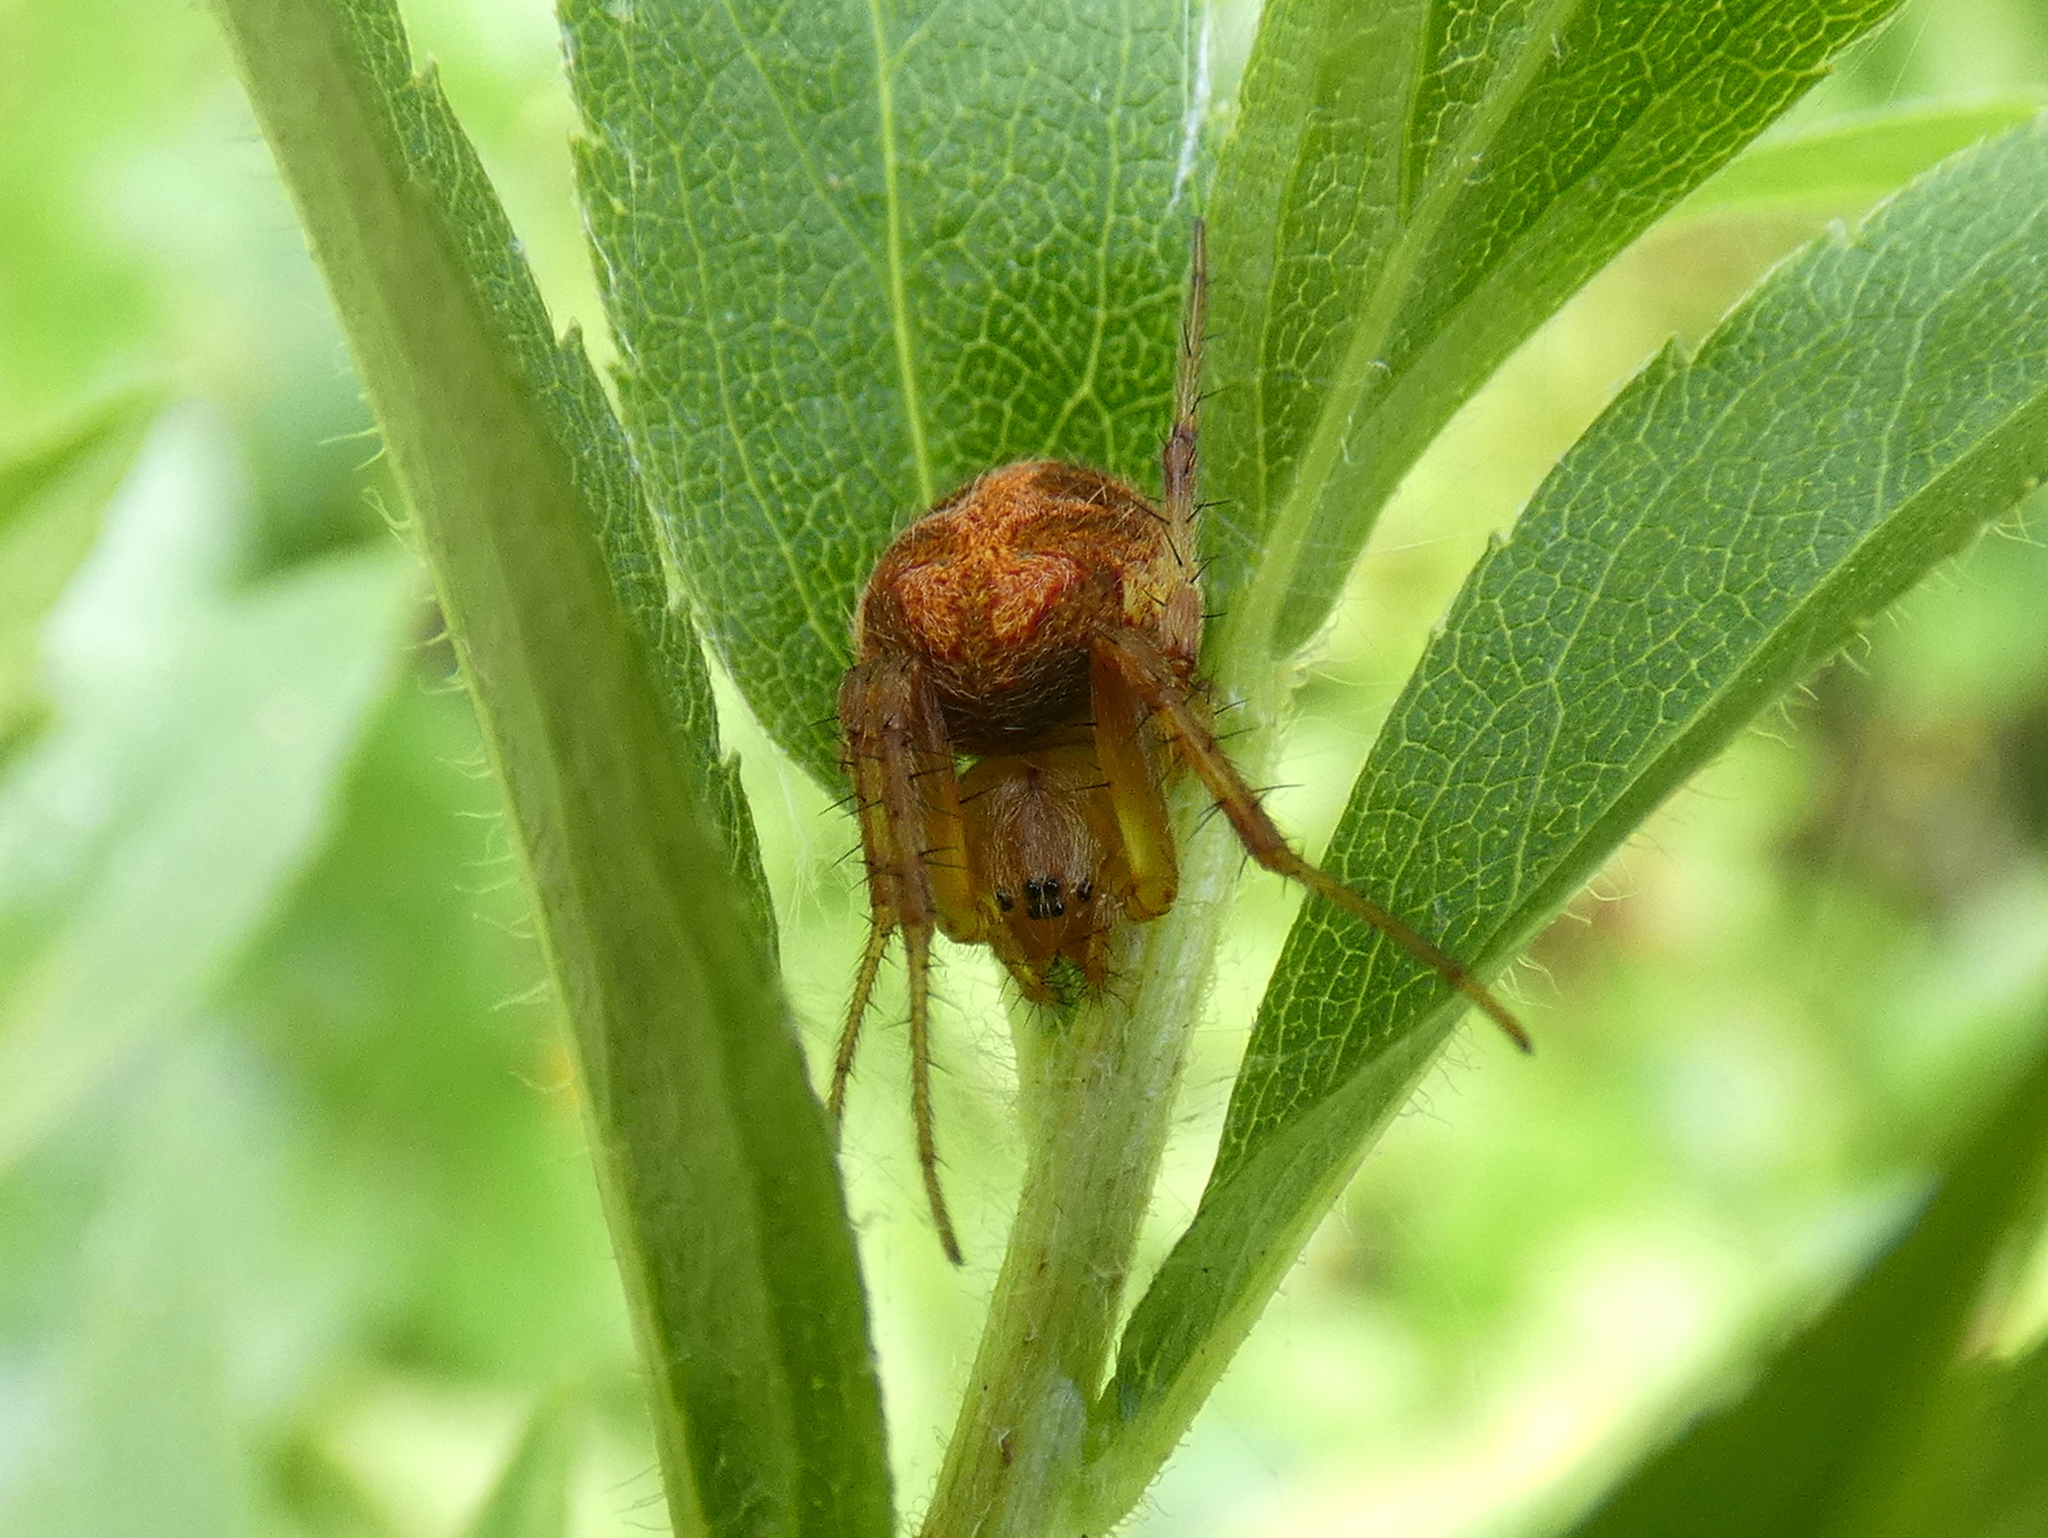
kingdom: Animalia
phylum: Arthropoda
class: Arachnida
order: Araneae
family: Araneidae
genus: Neoscona
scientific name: Neoscona arabesca
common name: Orb weavers
